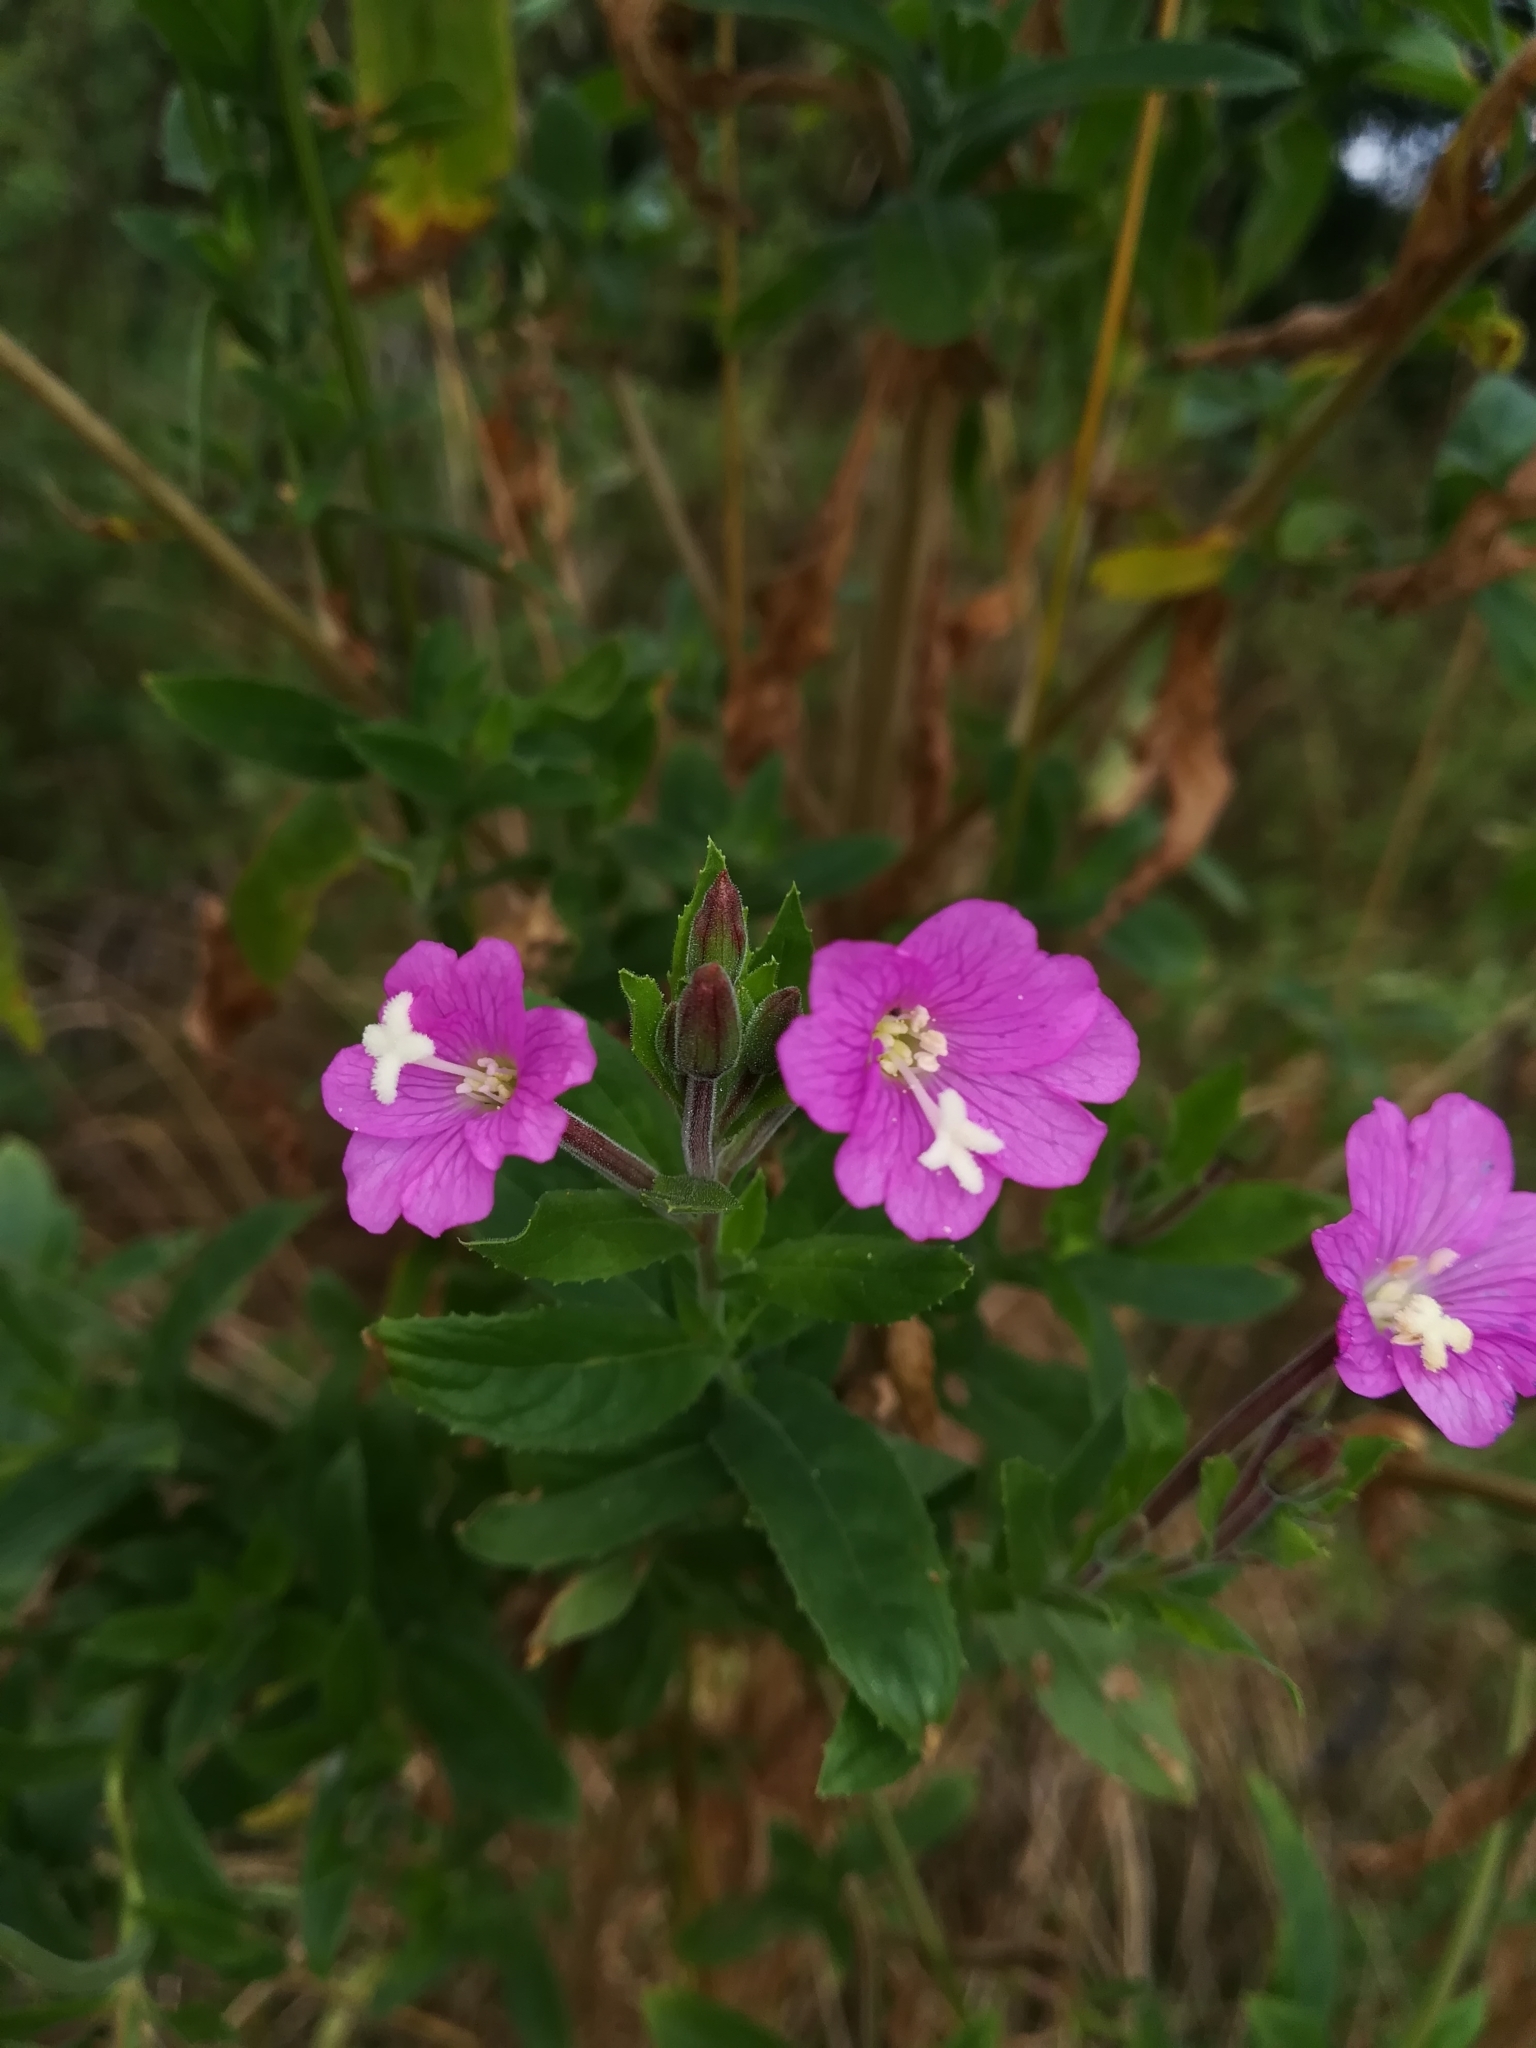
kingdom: Plantae
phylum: Tracheophyta
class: Magnoliopsida
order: Myrtales
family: Onagraceae
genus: Epilobium
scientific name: Epilobium hirsutum
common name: Great willowherb
